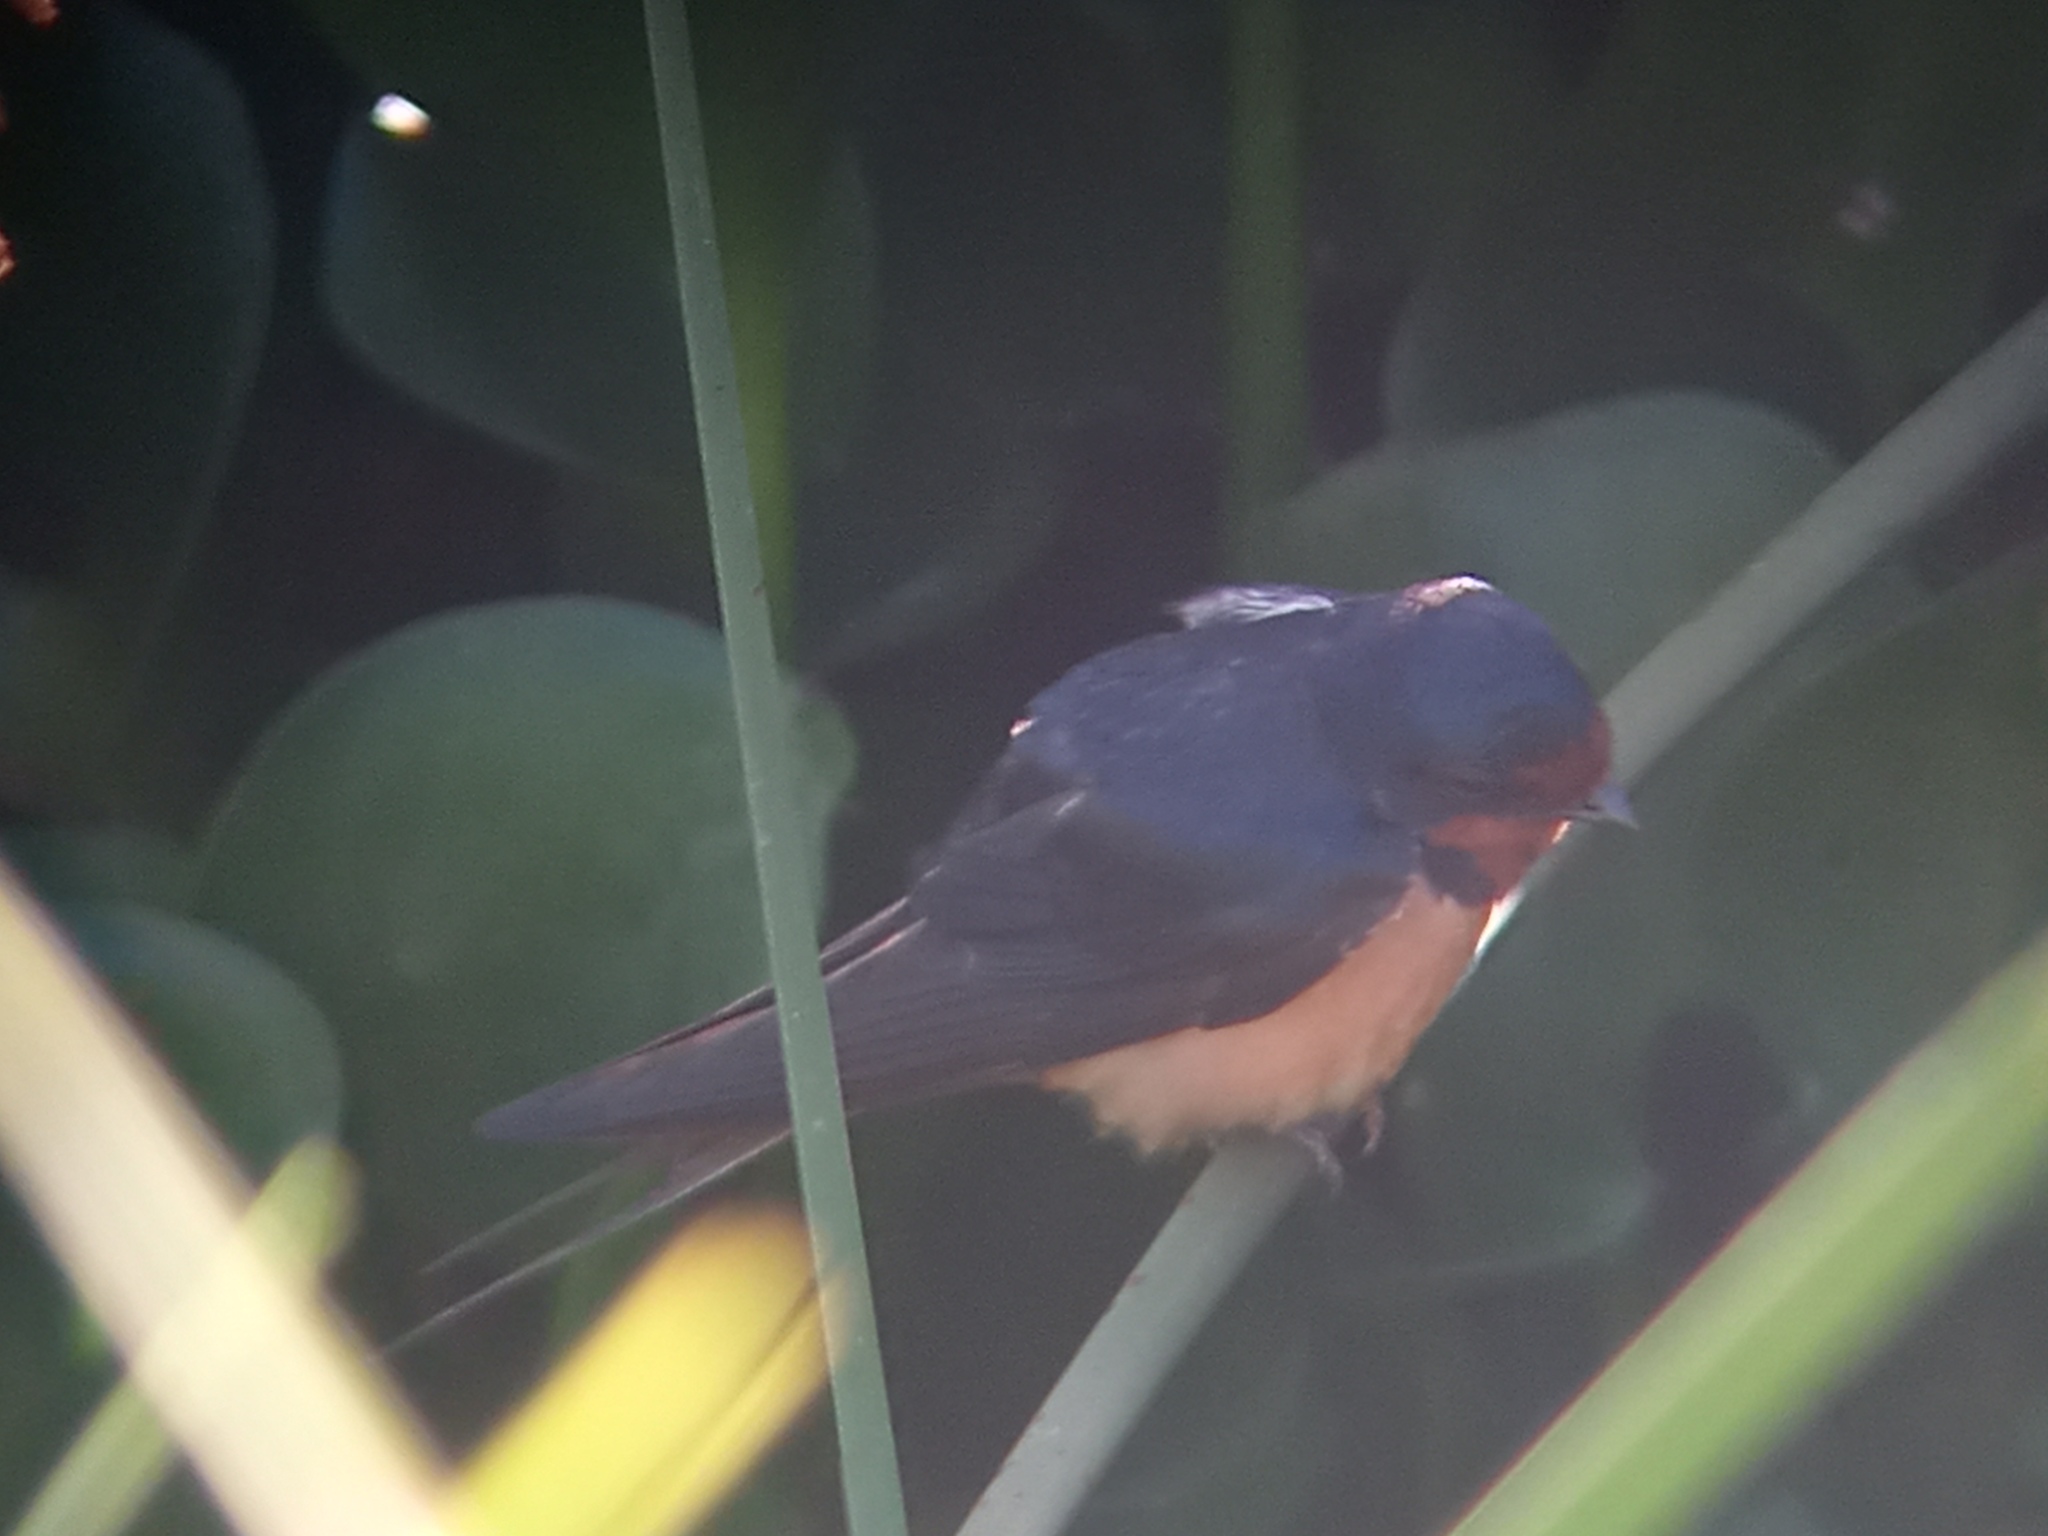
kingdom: Animalia
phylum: Chordata
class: Aves
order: Passeriformes
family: Hirundinidae
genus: Hirundo
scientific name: Hirundo rustica
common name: Barn swallow
